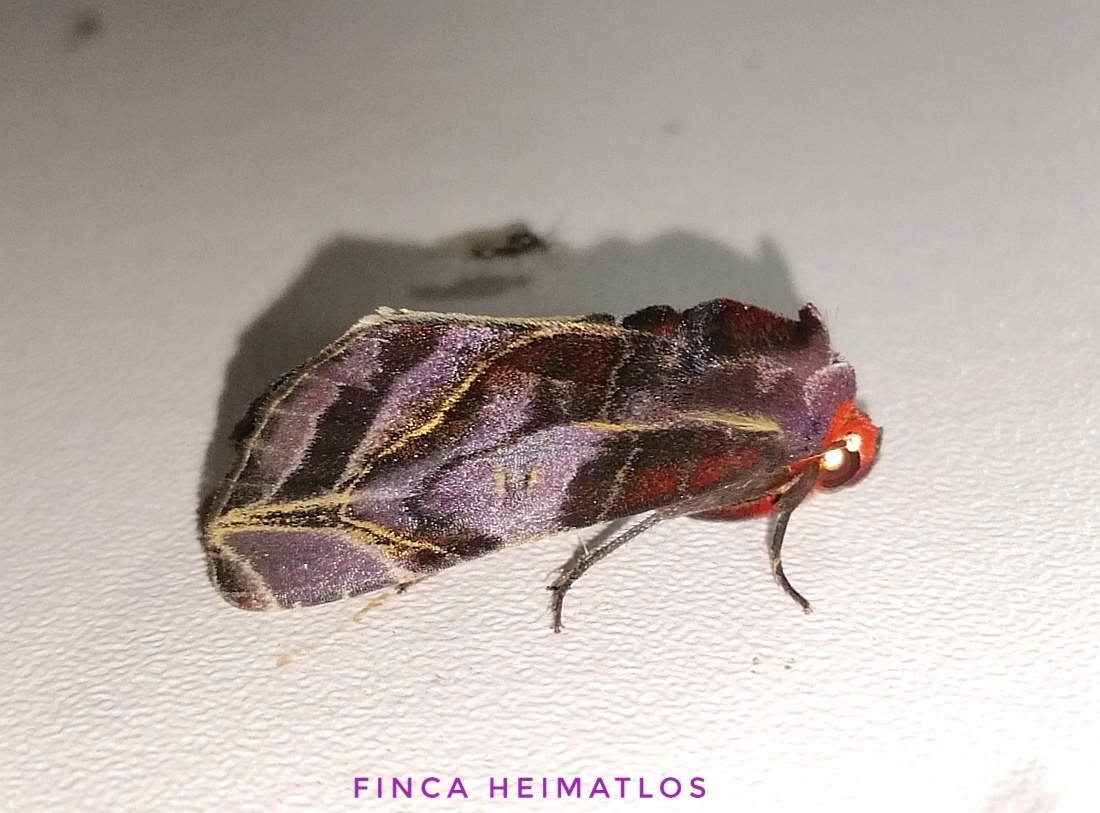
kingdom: Animalia
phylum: Arthropoda
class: Insecta
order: Lepidoptera
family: Erebidae
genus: Hemicephalis
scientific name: Hemicephalis alesa
